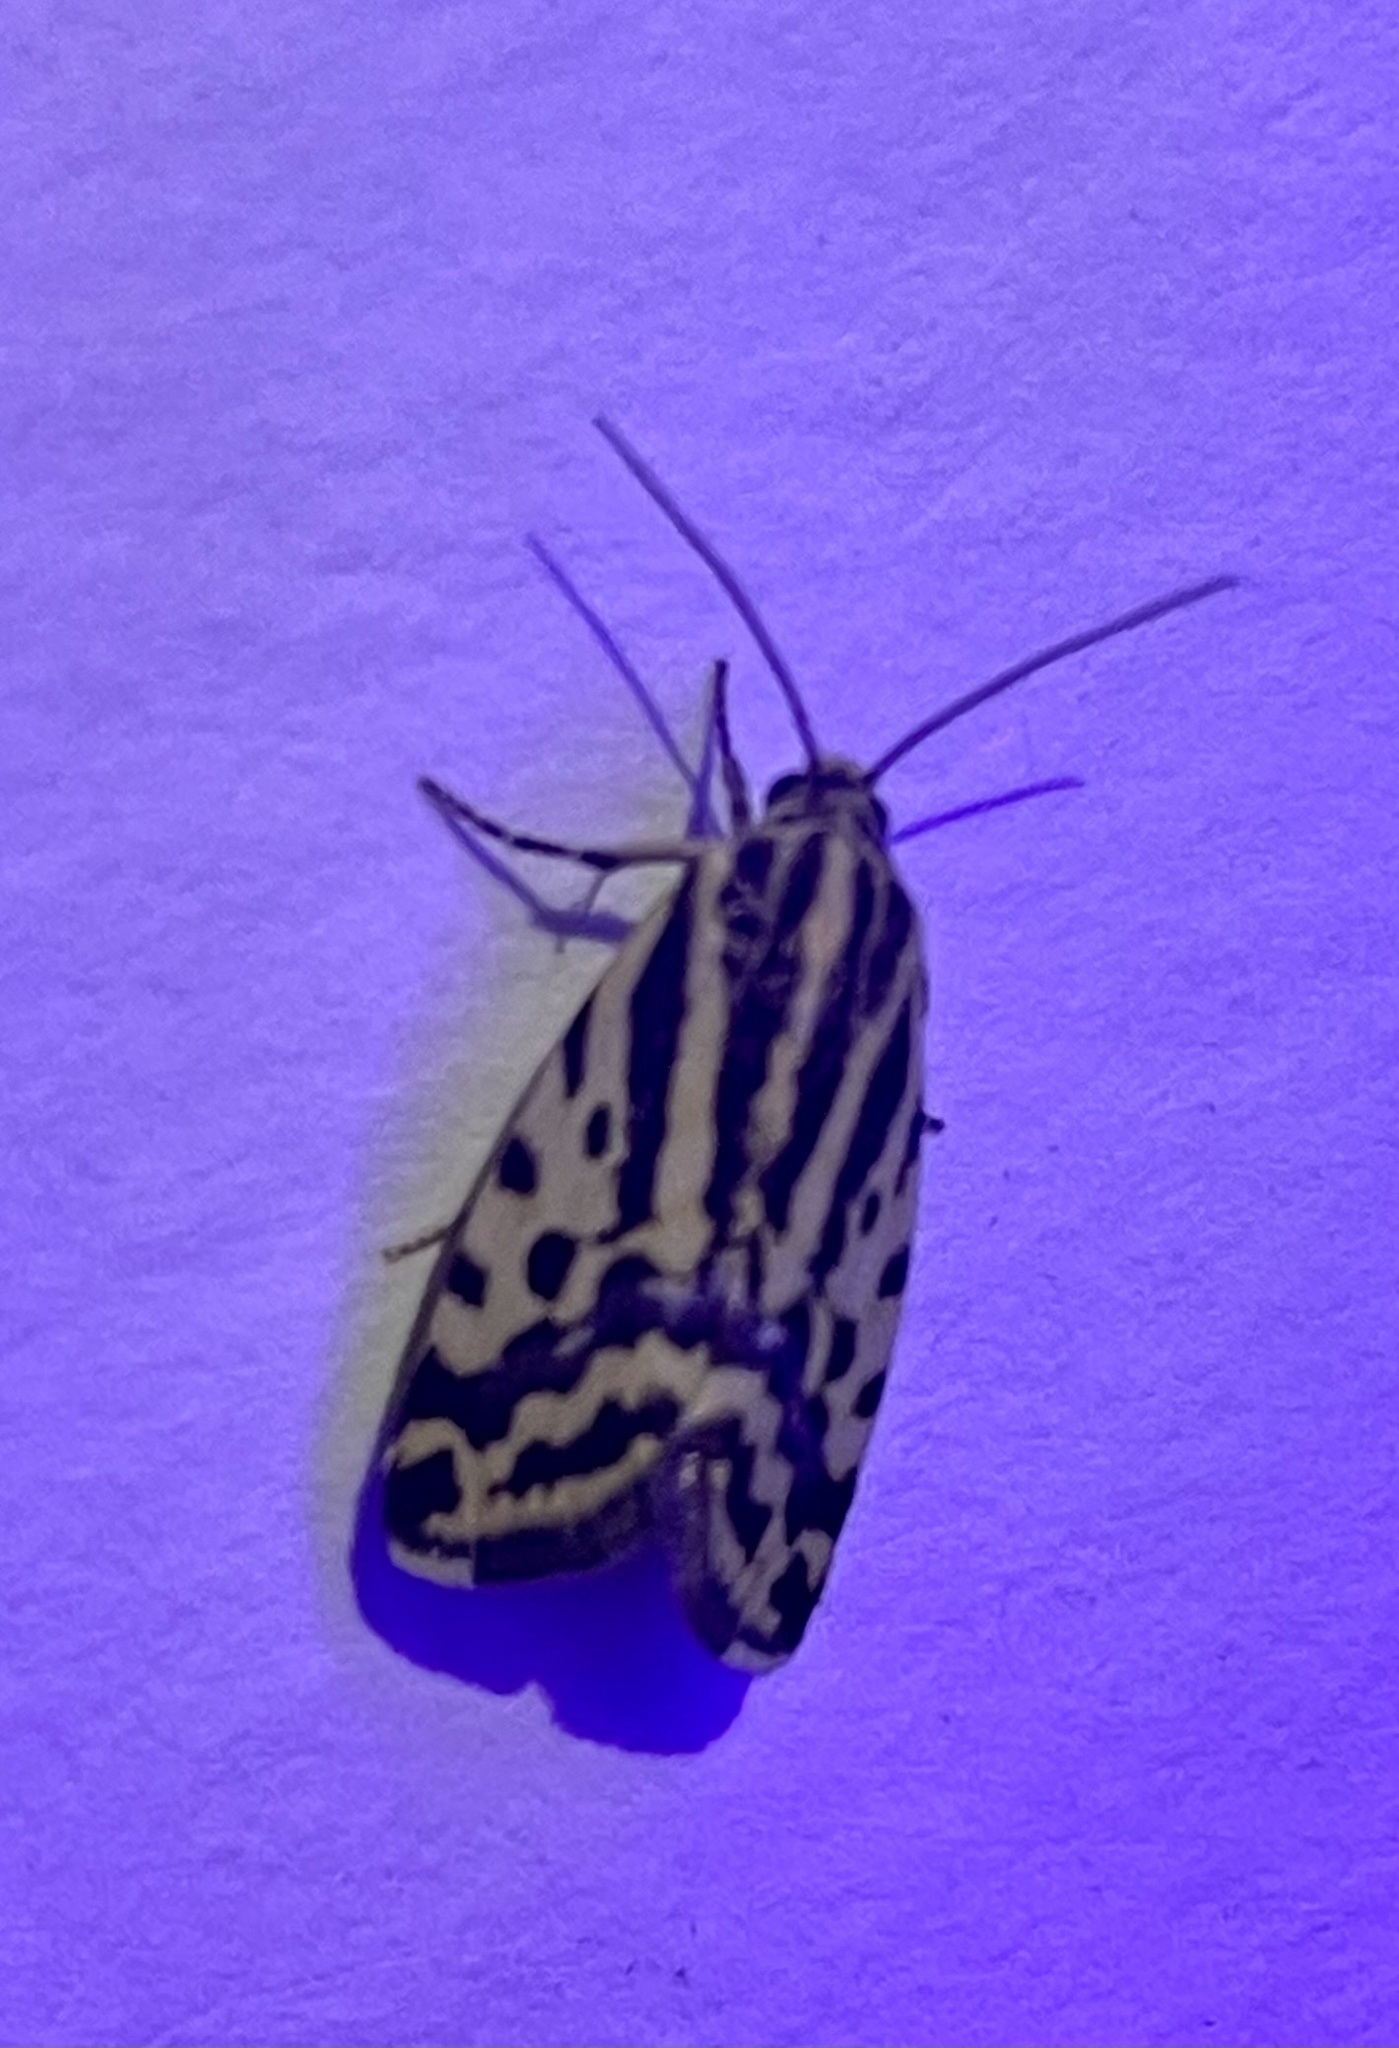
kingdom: Animalia
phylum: Arthropoda
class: Insecta
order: Lepidoptera
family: Noctuidae
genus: Acontia
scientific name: Acontia trabealis
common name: Spotted sulphur
